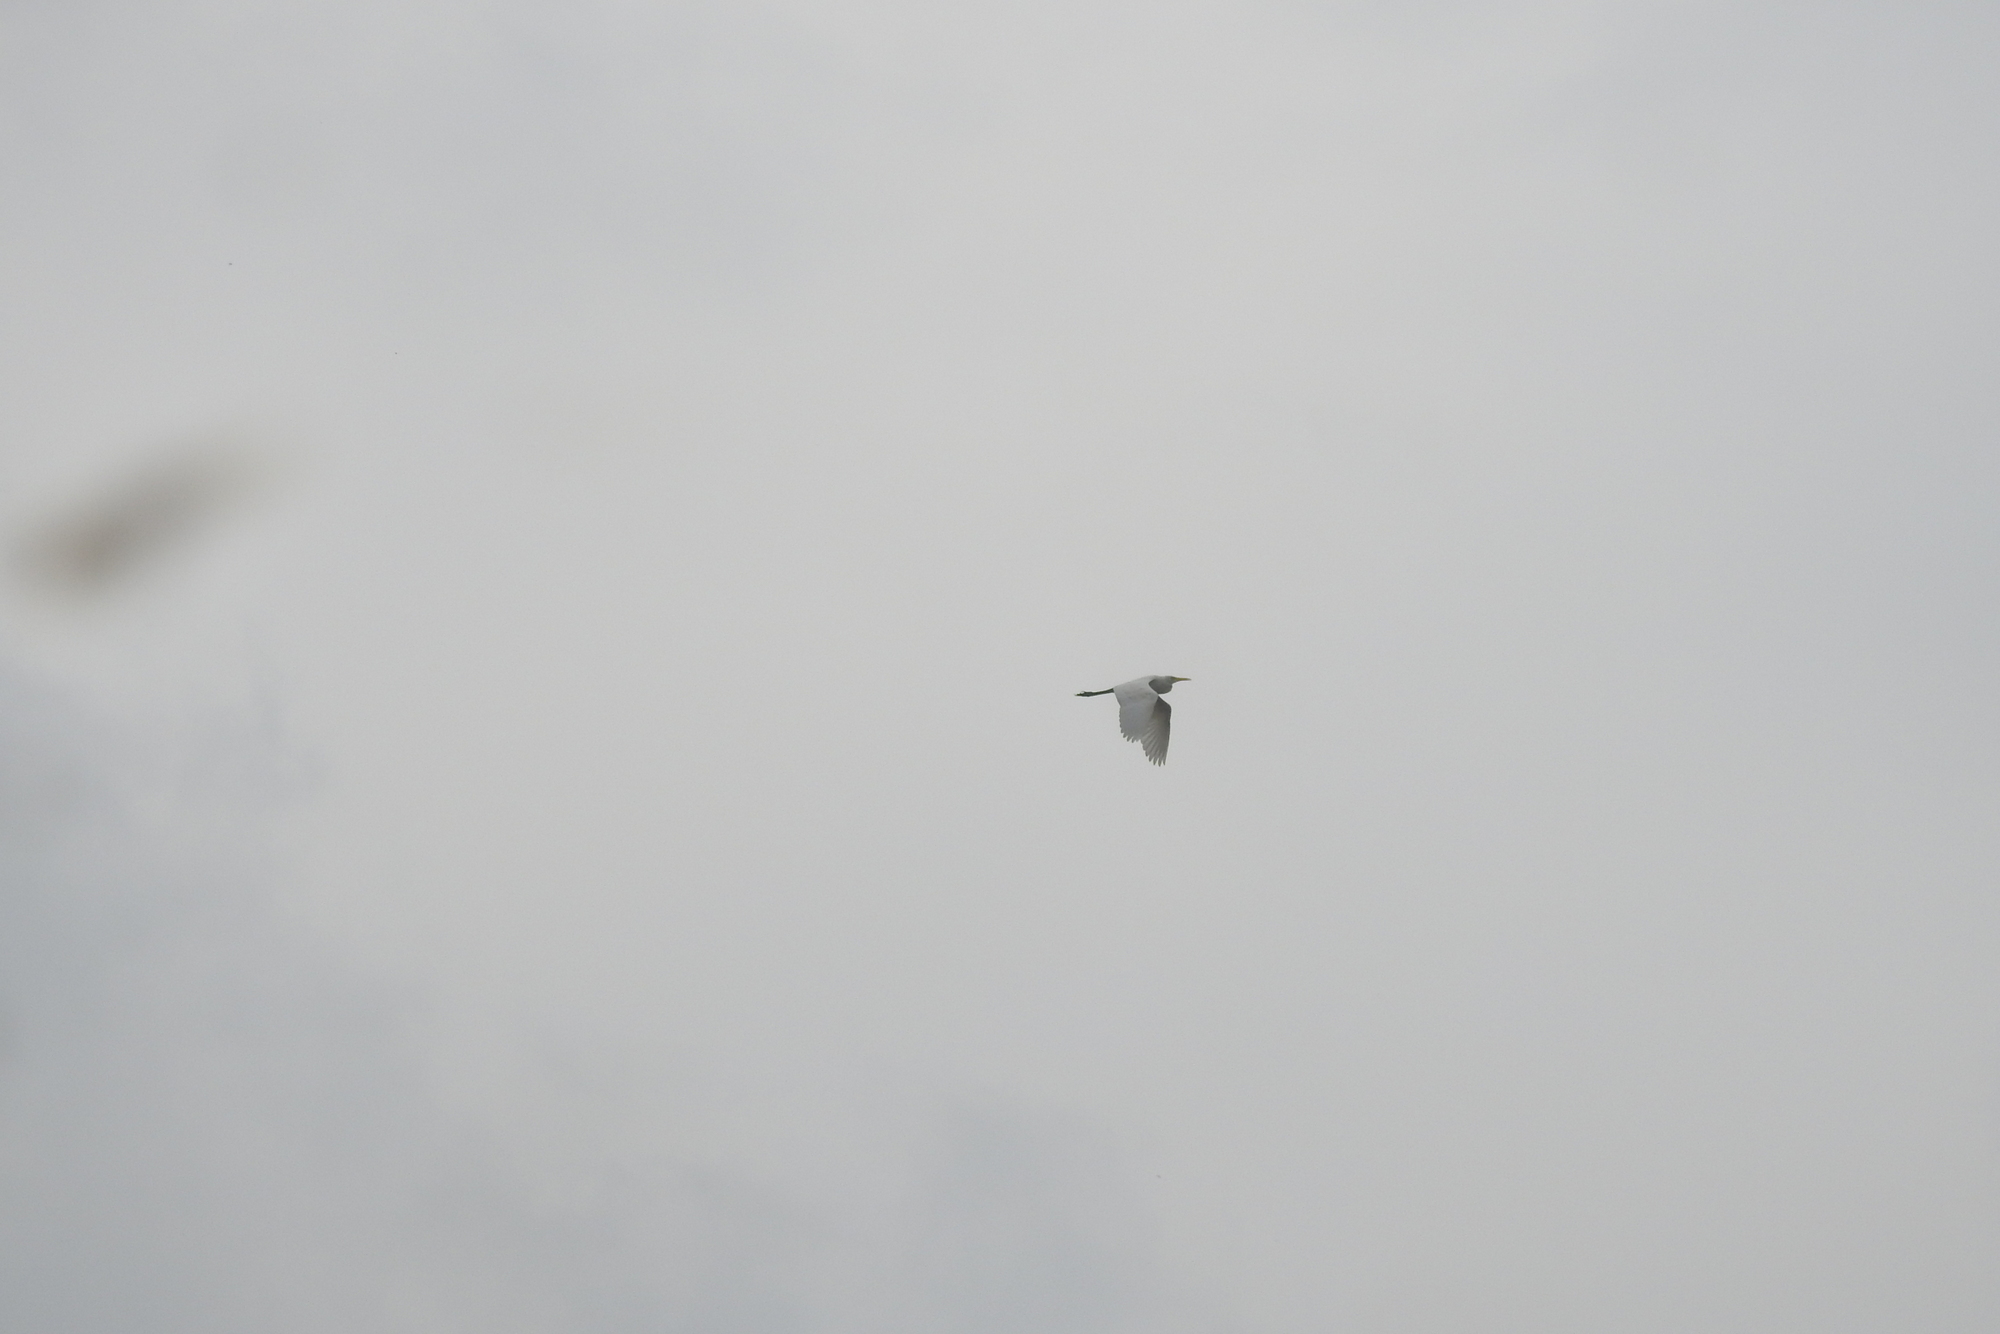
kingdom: Animalia
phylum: Chordata
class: Aves
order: Pelecaniformes
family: Ardeidae
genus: Bubulcus
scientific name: Bubulcus coromandus
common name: Eastern cattle egret
